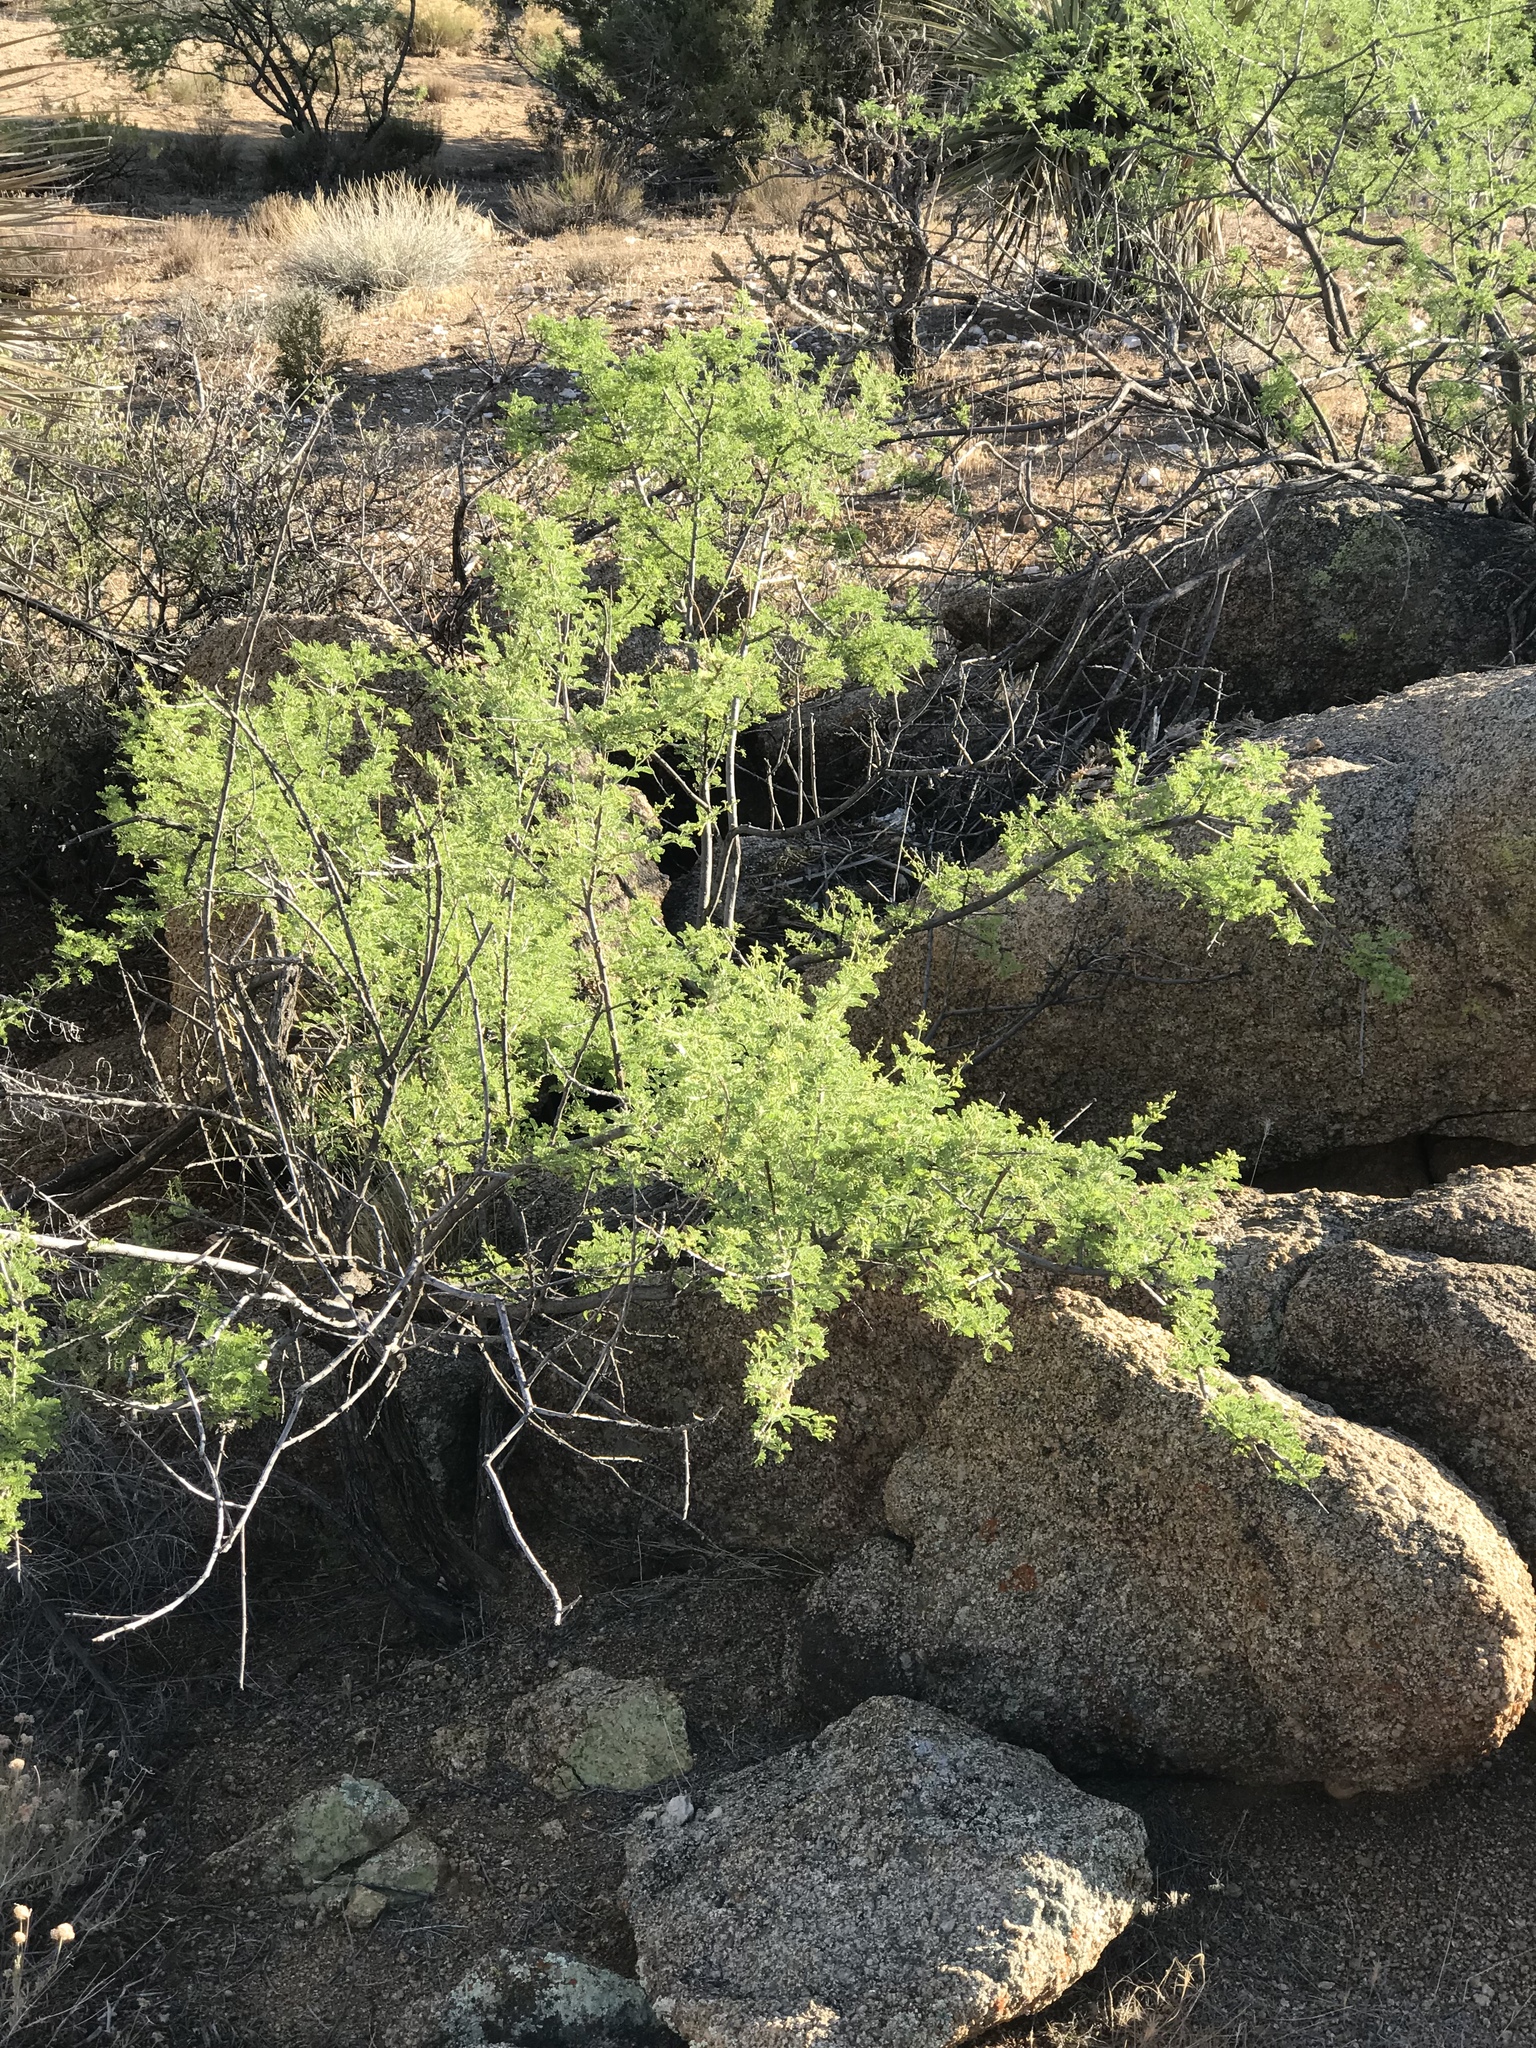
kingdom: Plantae
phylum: Tracheophyta
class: Magnoliopsida
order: Fabales
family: Fabaceae
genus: Senegalia
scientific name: Senegalia greggii
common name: Texas-mimosa
